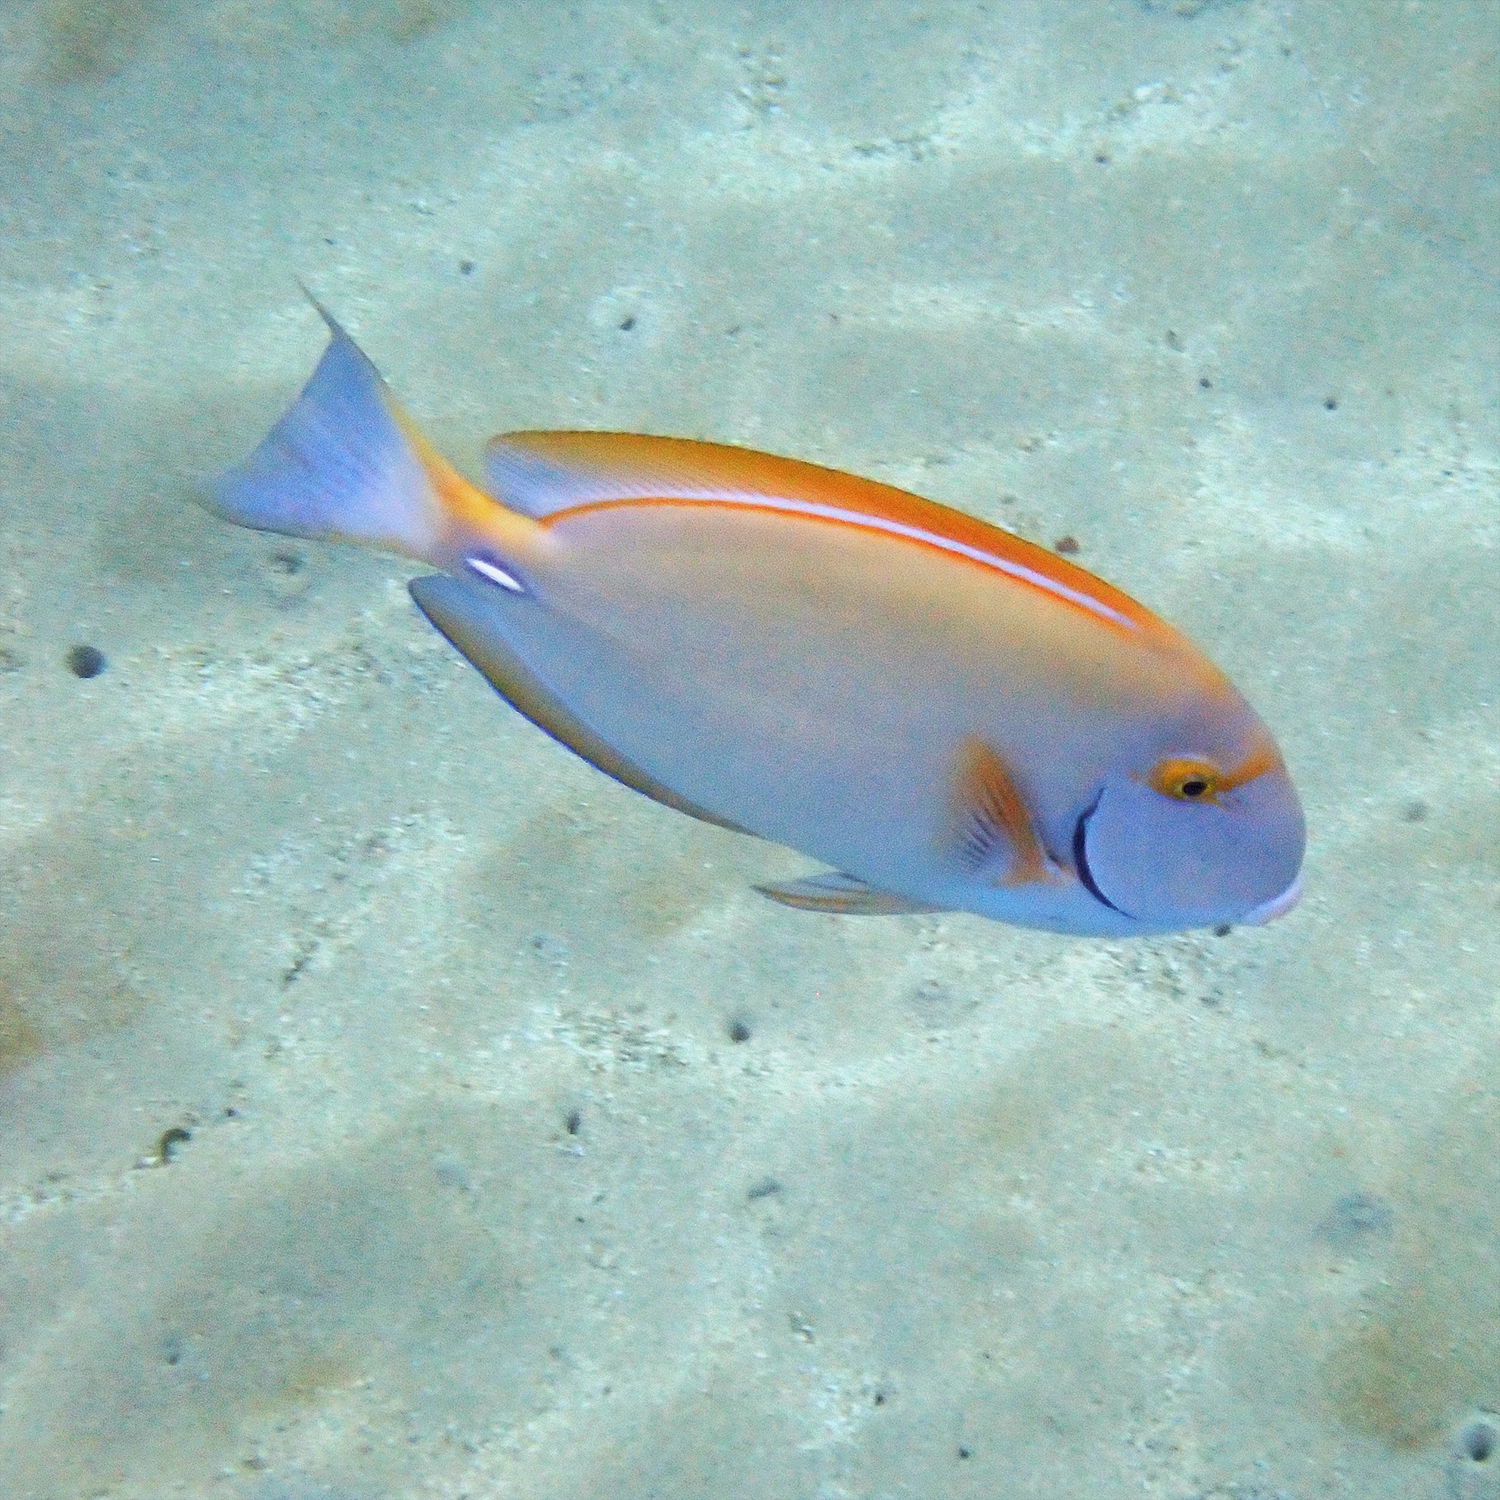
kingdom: Animalia
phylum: Chordata
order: Perciformes
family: Acanthuridae
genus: Acanthurus
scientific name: Acanthurus dussumieri
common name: Dussumier's surgeonfish
